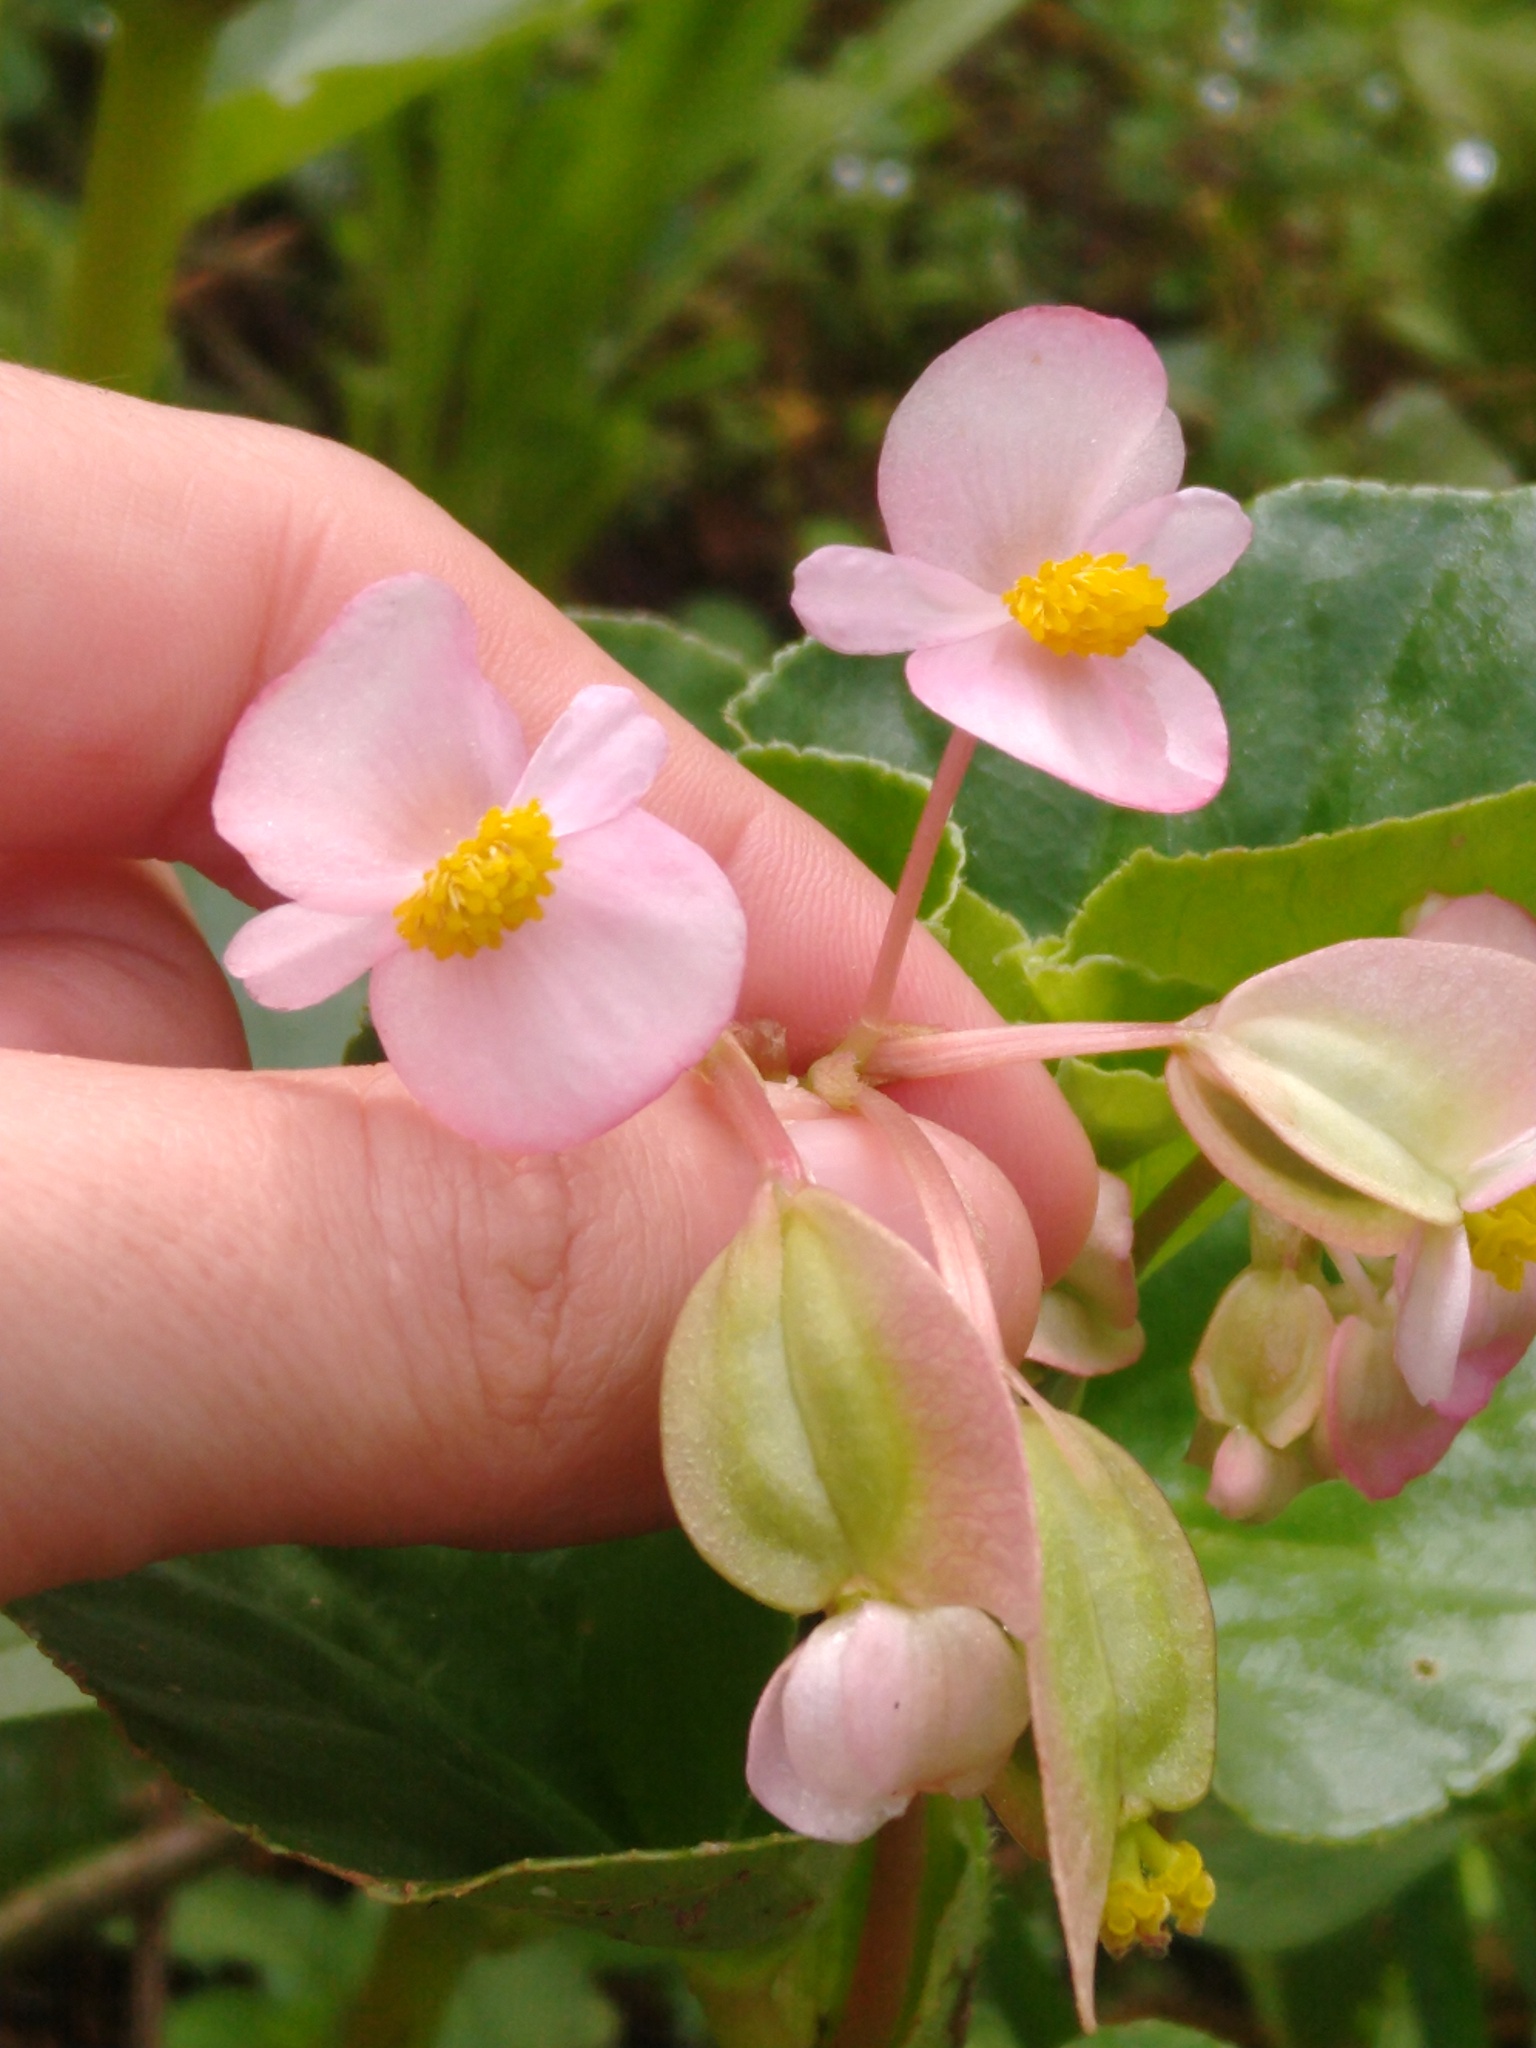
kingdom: Plantae
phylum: Tracheophyta
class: Magnoliopsida
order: Cucurbitales
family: Begoniaceae
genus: Begonia
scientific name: Begonia cucullata
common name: Clubbed begonia
